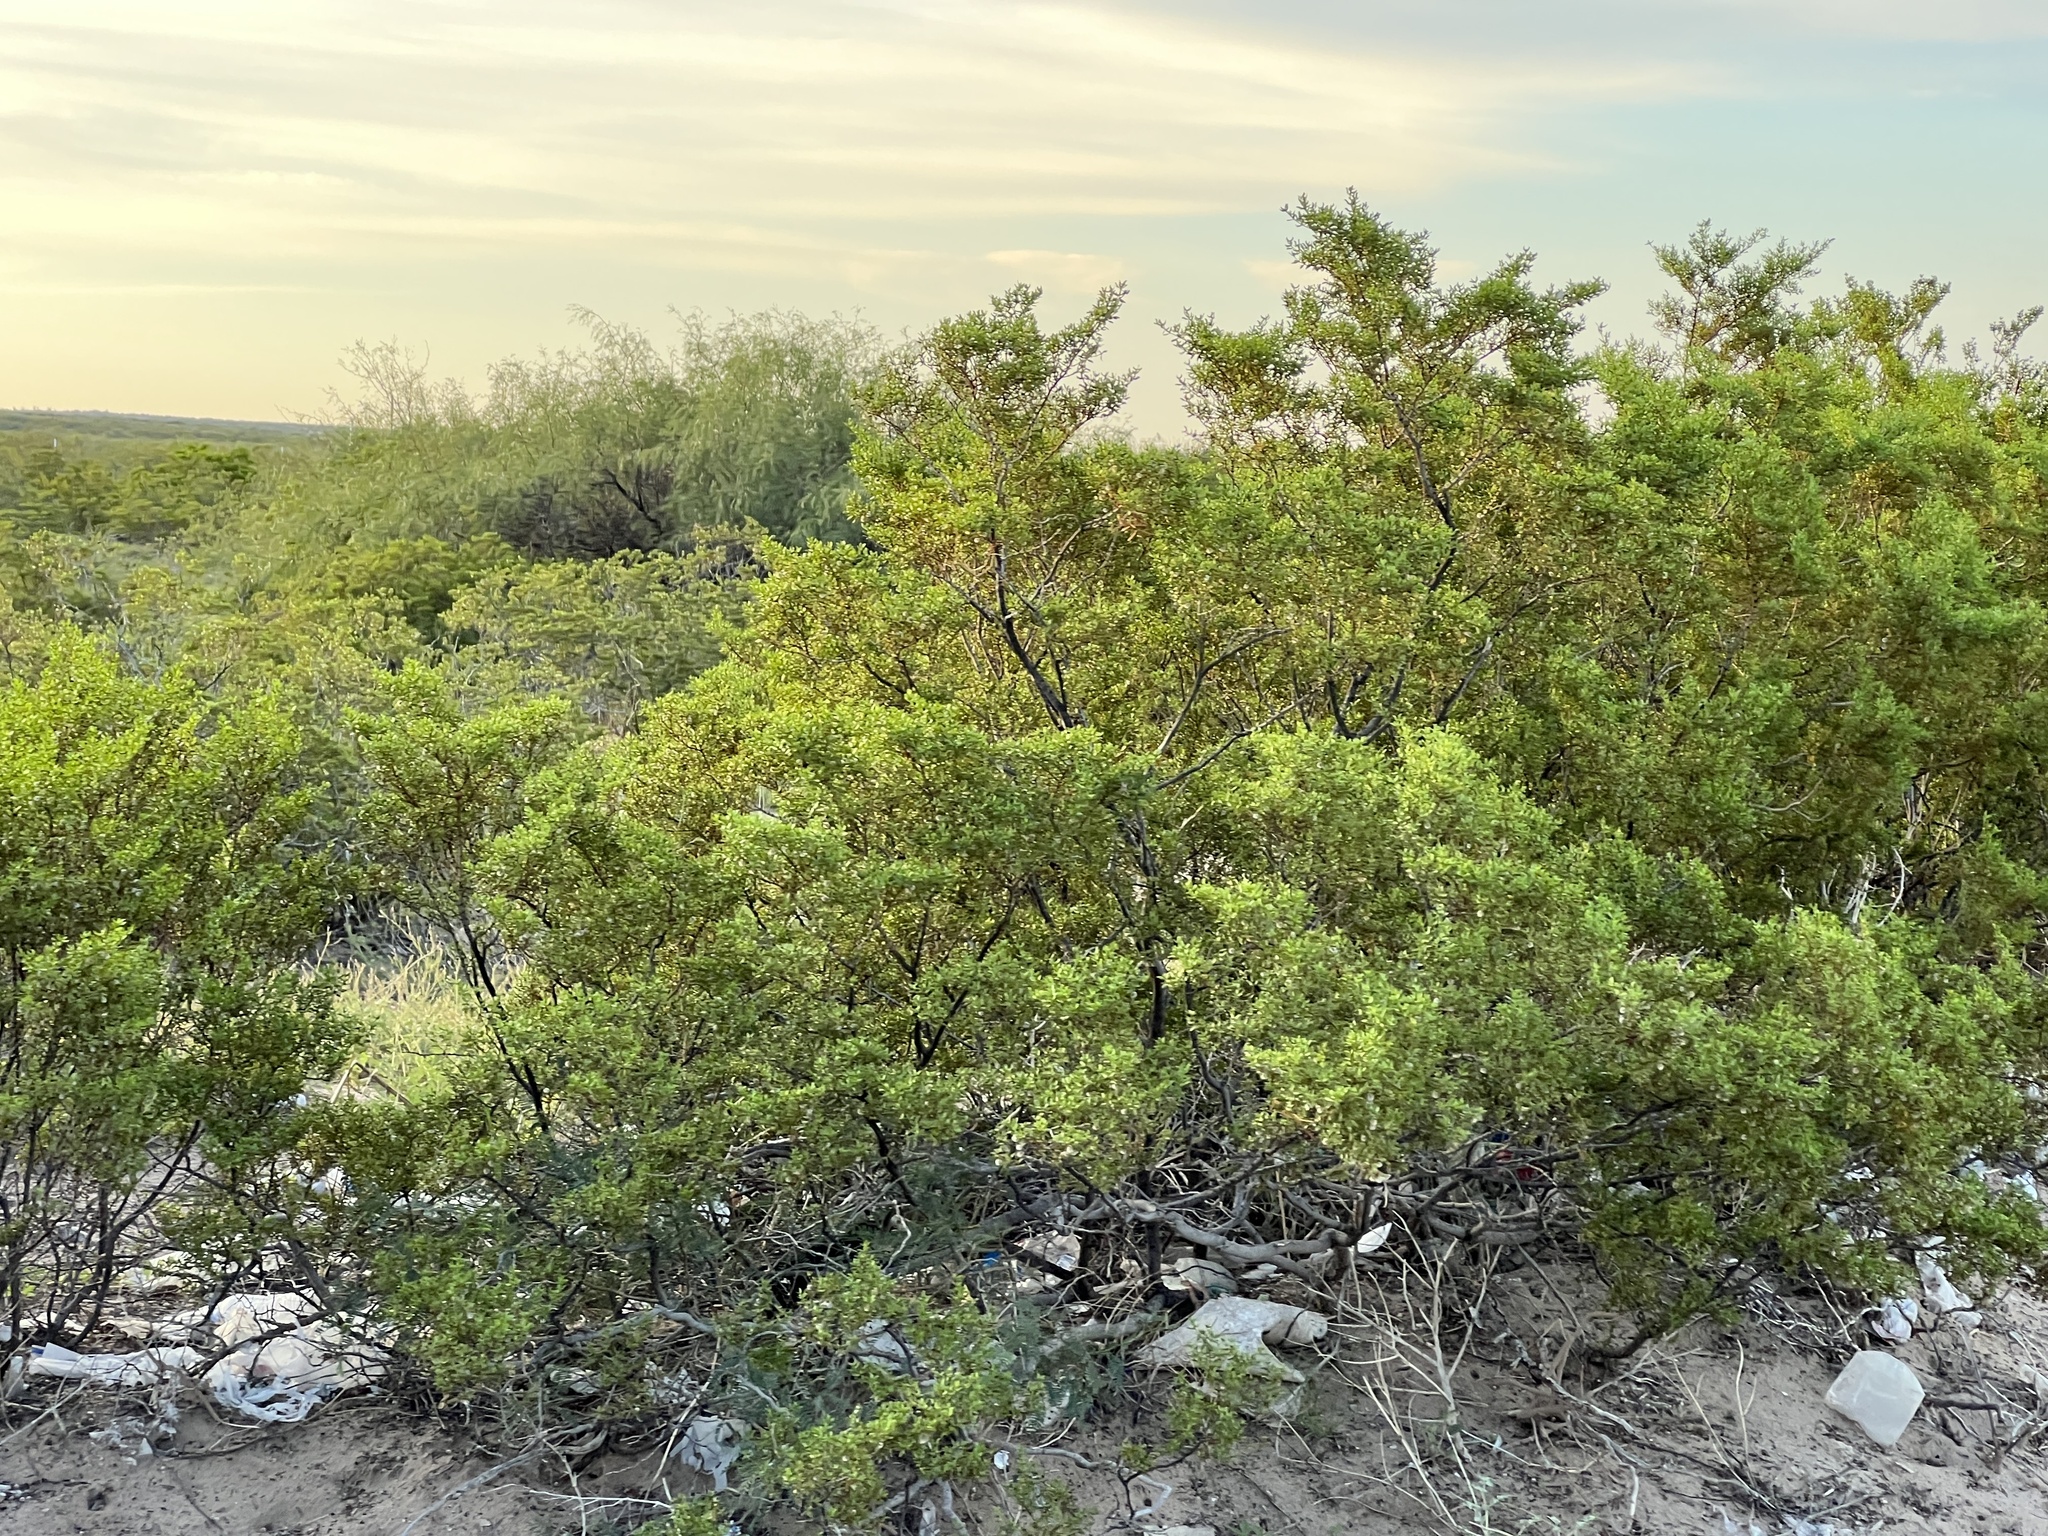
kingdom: Plantae
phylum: Tracheophyta
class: Magnoliopsida
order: Zygophyllales
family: Zygophyllaceae
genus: Larrea
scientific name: Larrea tridentata
